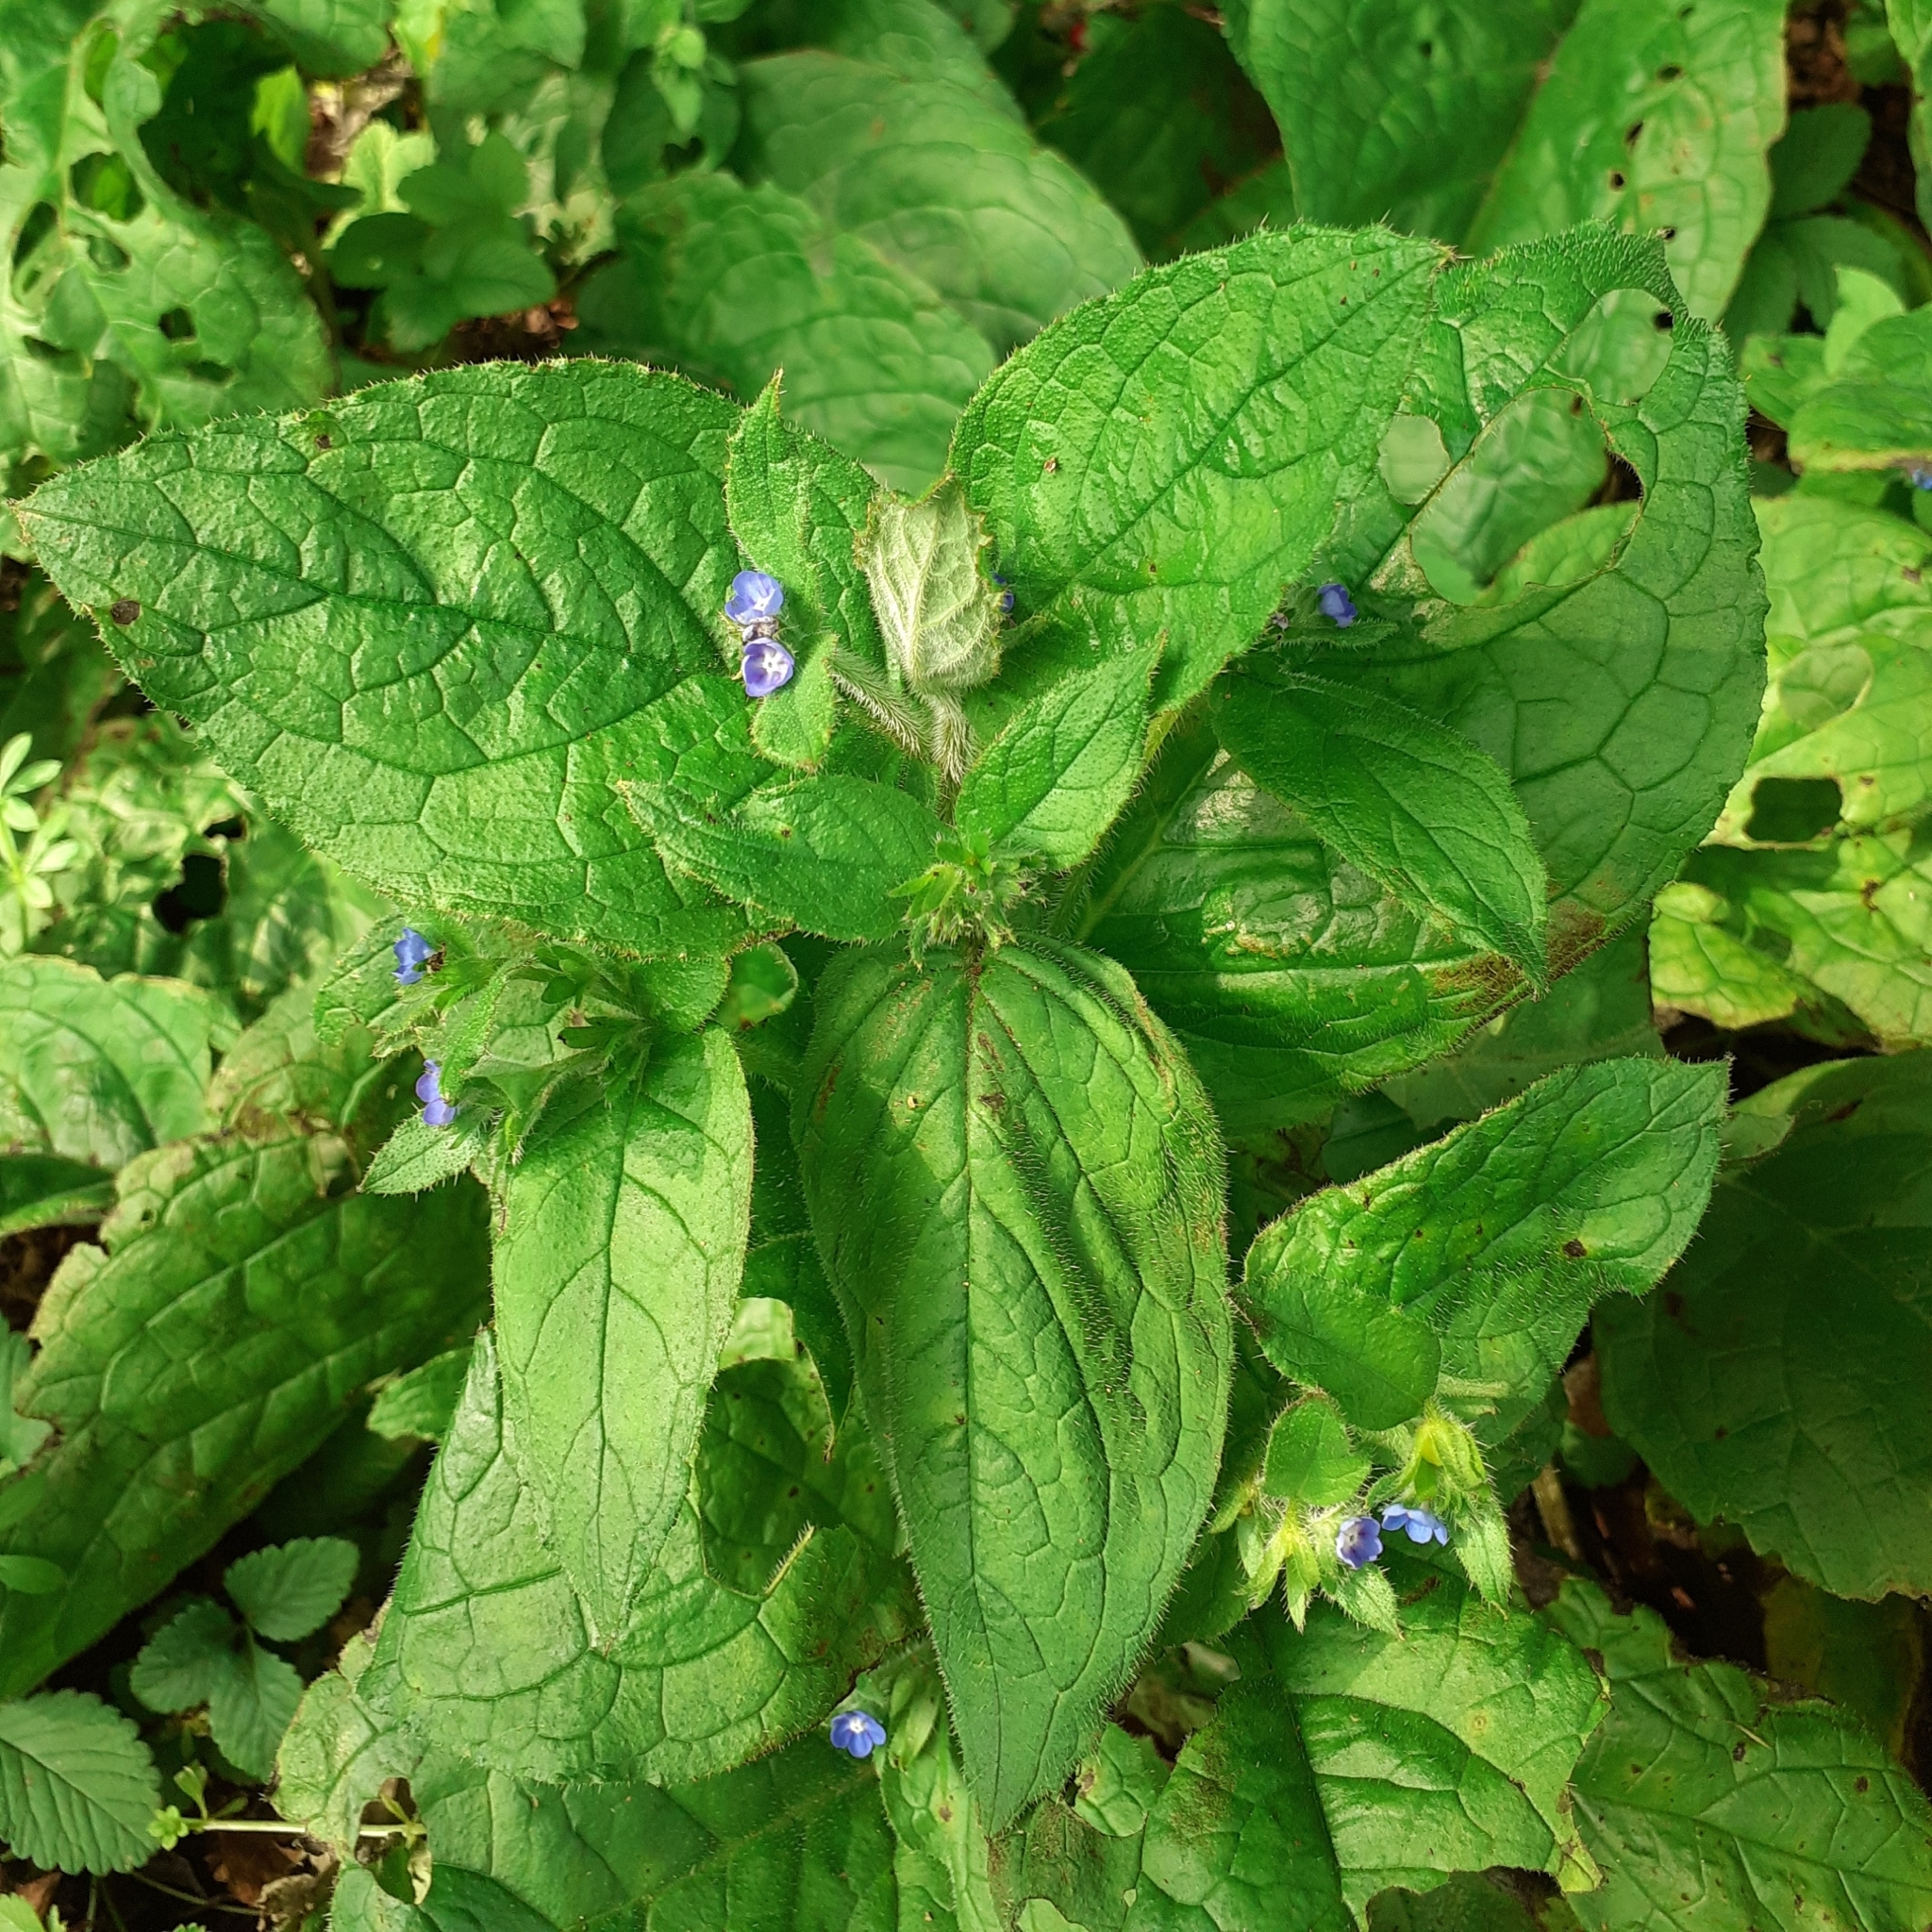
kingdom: Plantae
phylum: Tracheophyta
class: Magnoliopsida
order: Boraginales
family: Boraginaceae
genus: Pentaglottis
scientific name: Pentaglottis sempervirens
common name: Green alkanet
